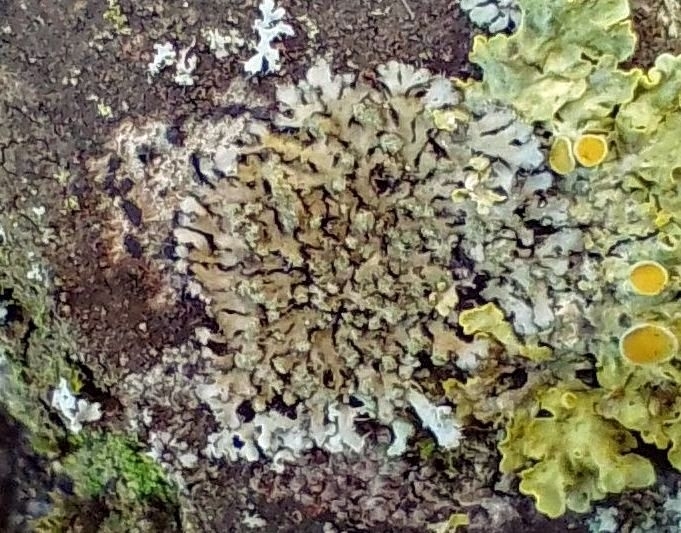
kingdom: Fungi
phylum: Ascomycota
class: Lecanoromycetes
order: Caliciales
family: Physciaceae
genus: Phaeophyscia
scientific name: Phaeophyscia orbicularis
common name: Mealy shadow lichen
